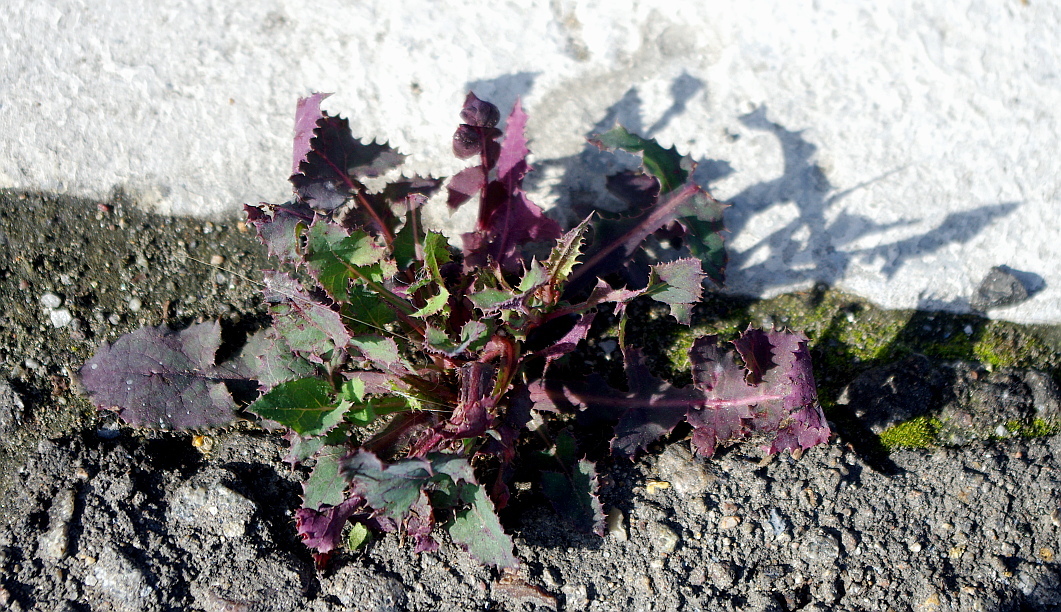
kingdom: Plantae
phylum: Tracheophyta
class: Magnoliopsida
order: Asterales
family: Asteraceae
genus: Sonchus
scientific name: Sonchus oleraceus
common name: Common sowthistle
